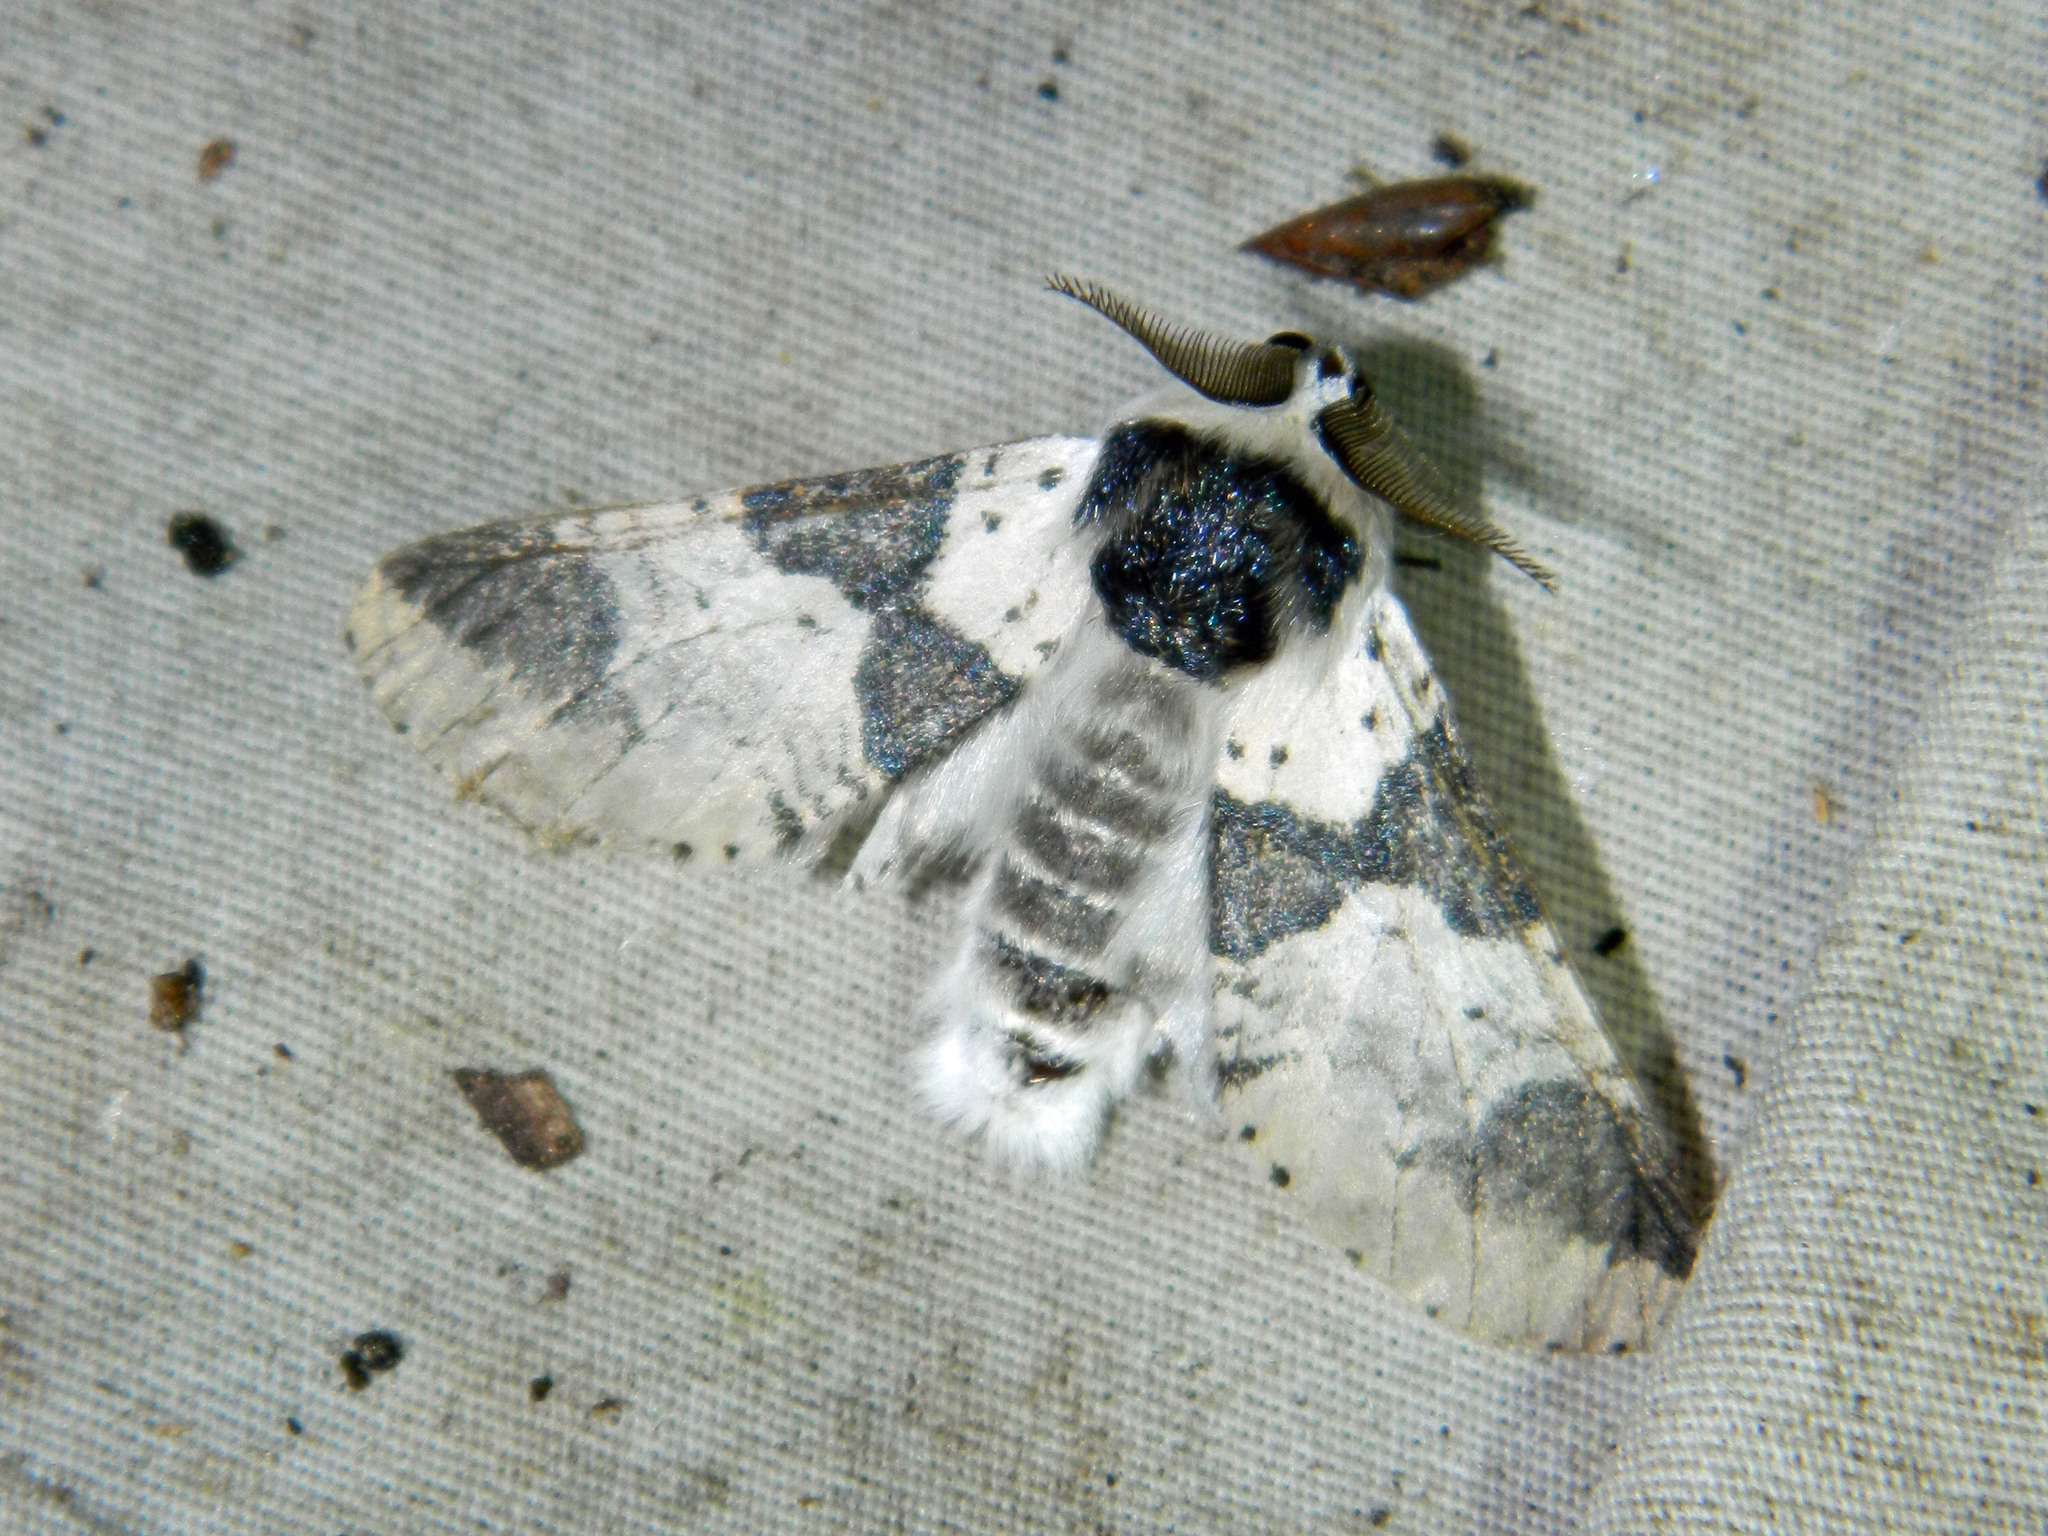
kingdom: Animalia
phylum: Arthropoda
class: Insecta
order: Lepidoptera
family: Notodontidae
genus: Furcula
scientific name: Furcula modesta
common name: Modest furcula moth
